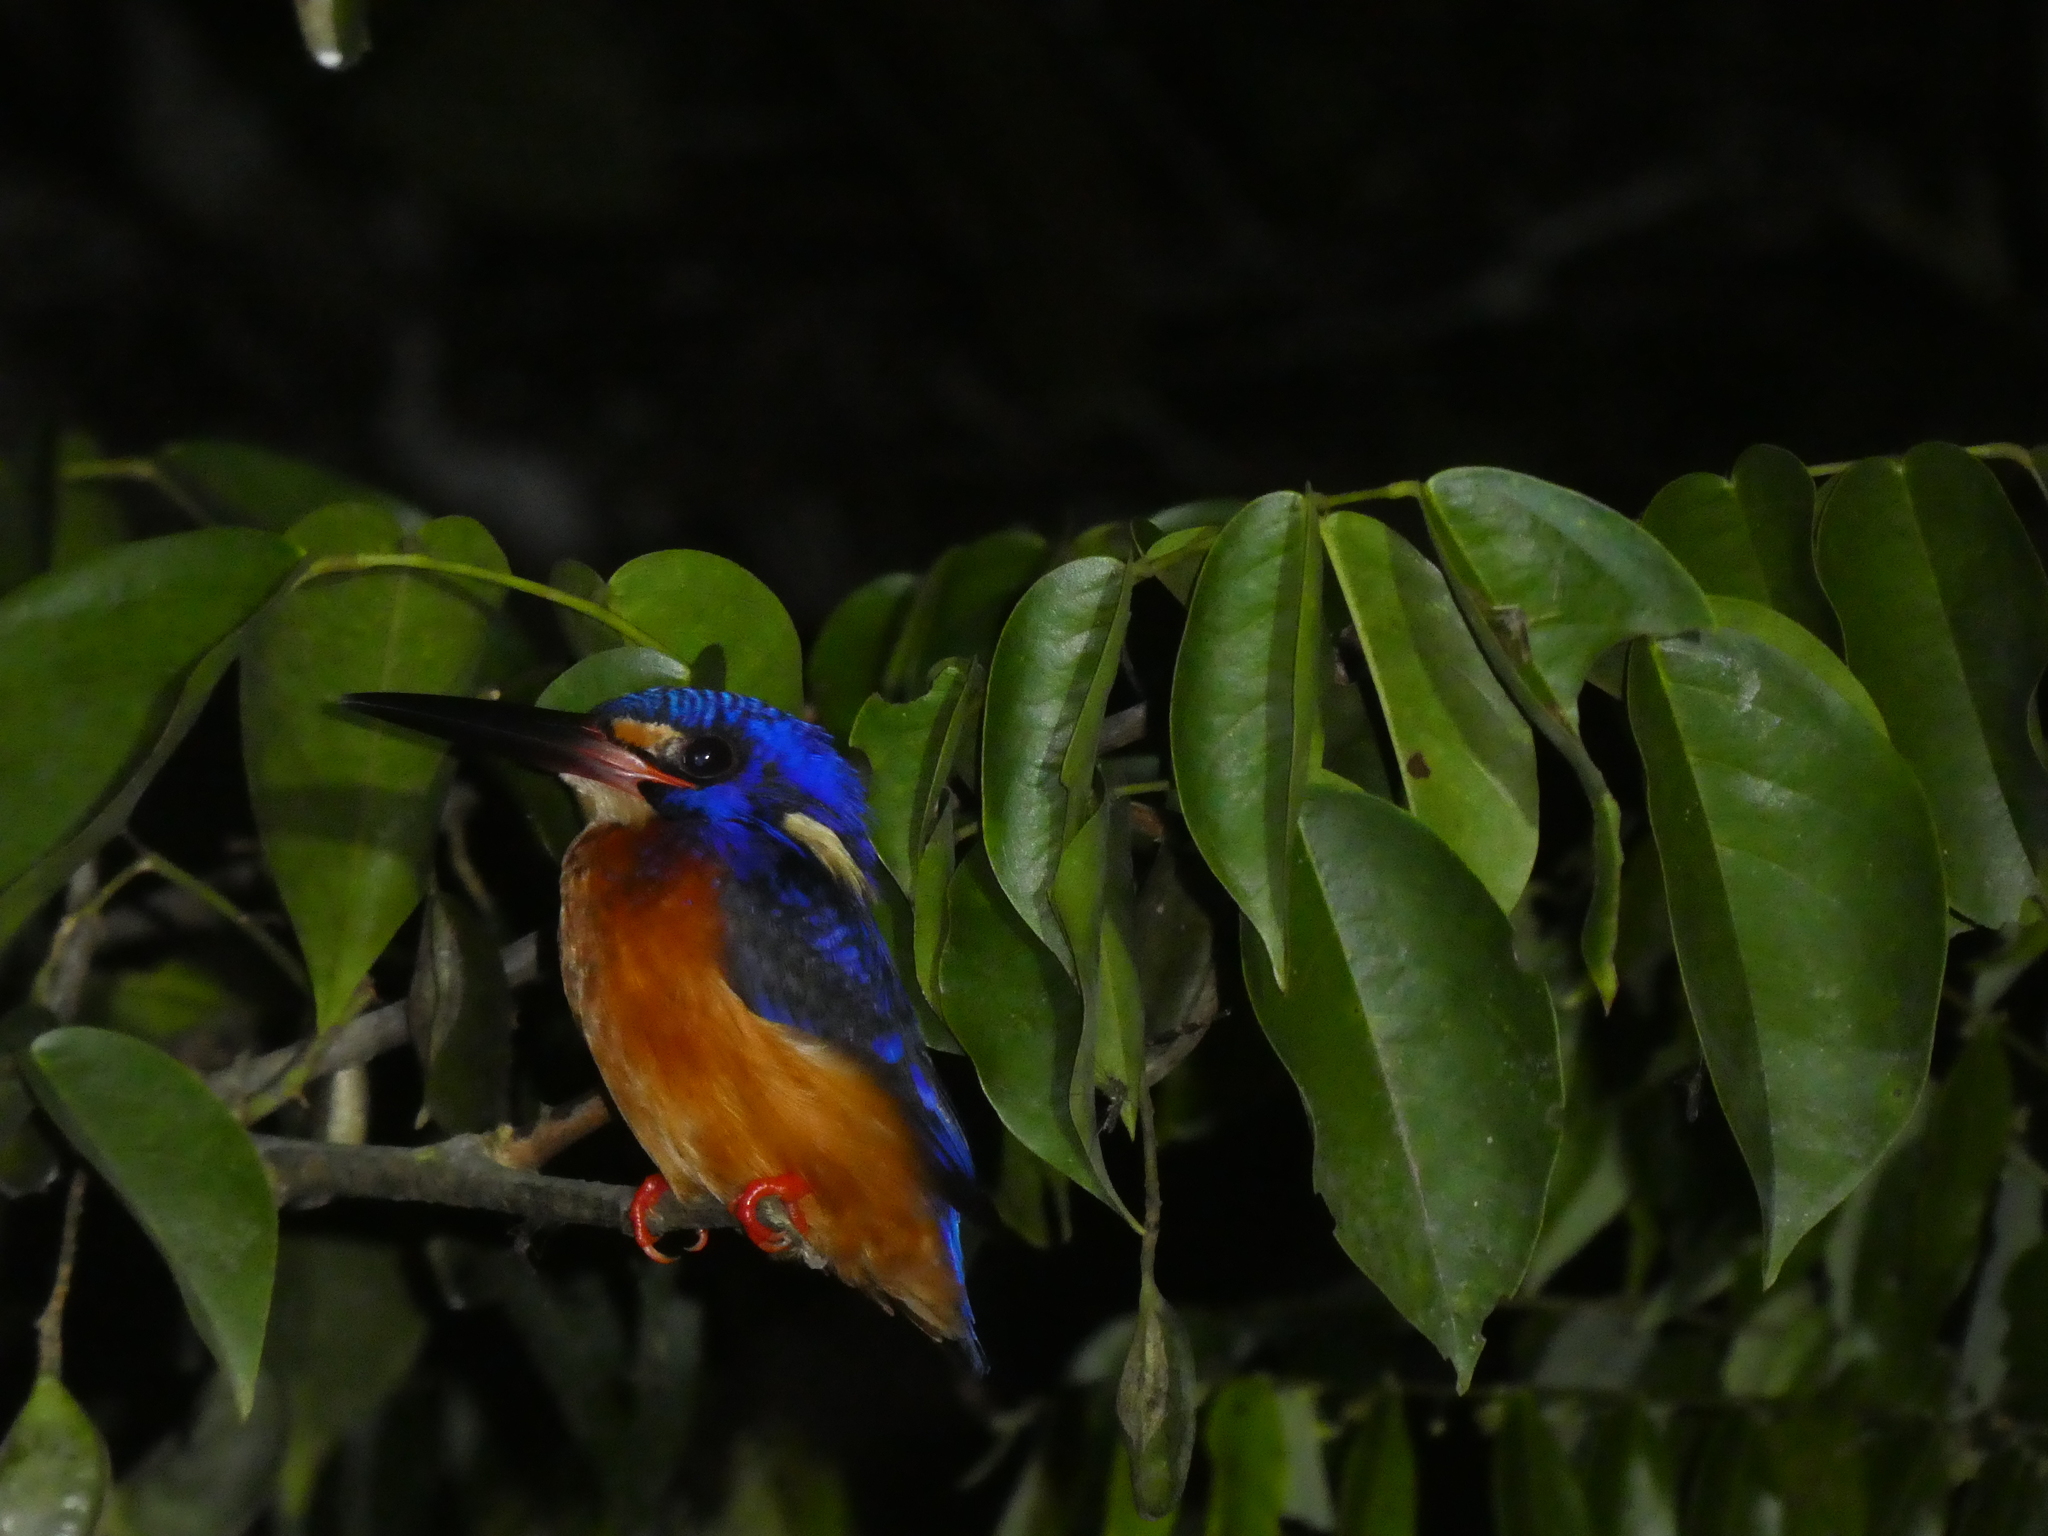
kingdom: Animalia
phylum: Chordata
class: Aves
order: Coraciiformes
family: Alcedinidae
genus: Alcedo
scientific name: Alcedo meninting
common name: Blue-eared kingfisher
